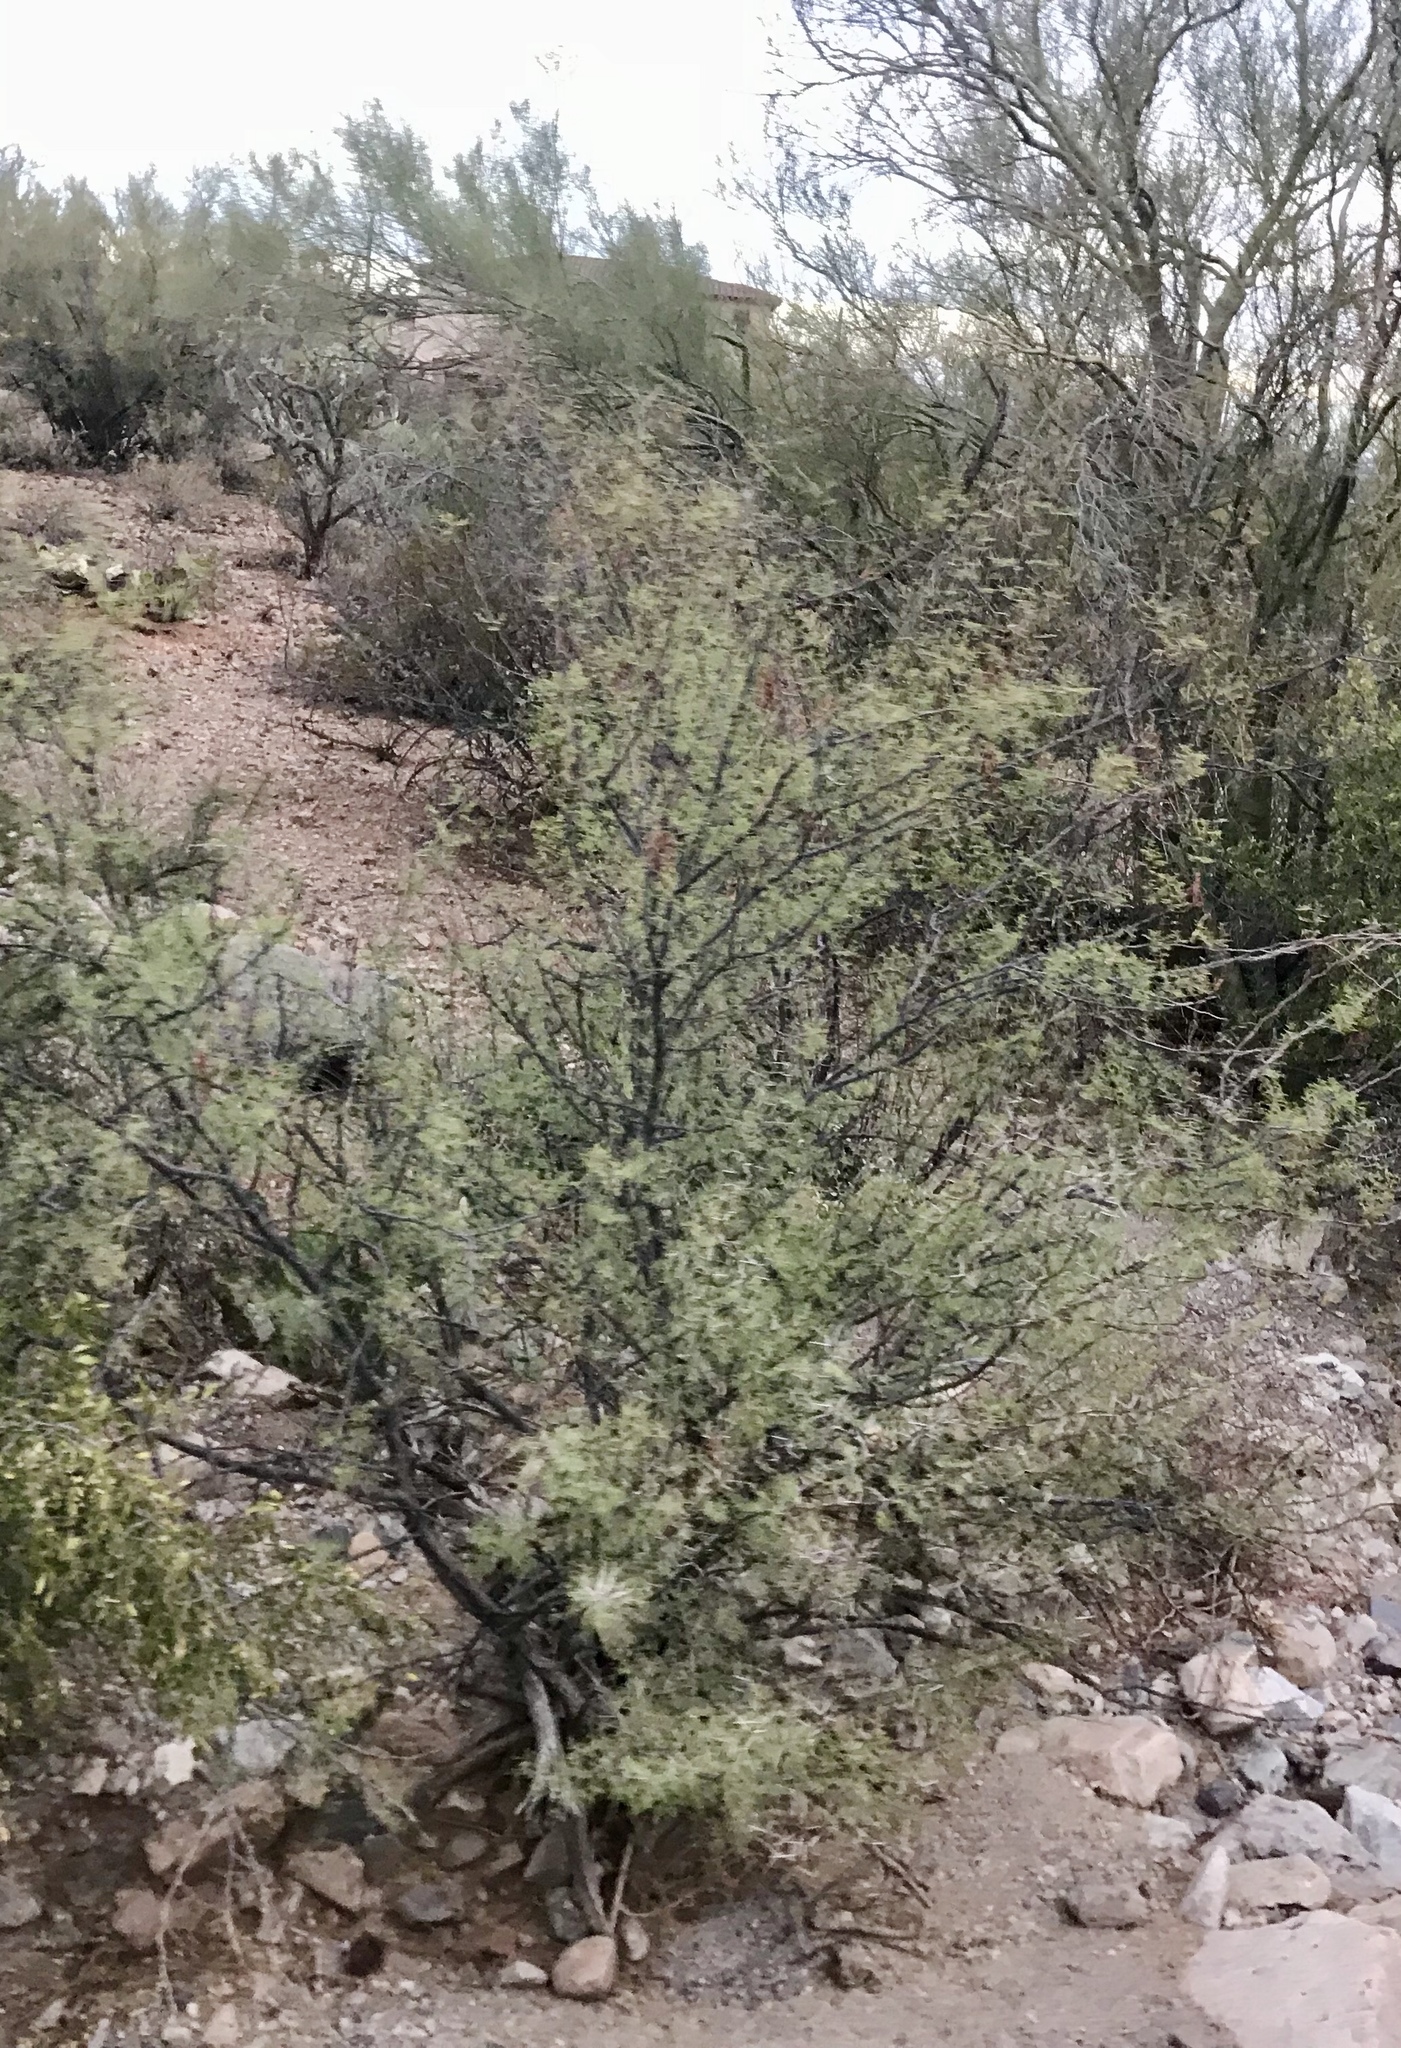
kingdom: Plantae
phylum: Tracheophyta
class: Magnoliopsida
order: Fabales
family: Fabaceae
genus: Vachellia
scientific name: Vachellia constricta
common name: Mescat acacia
